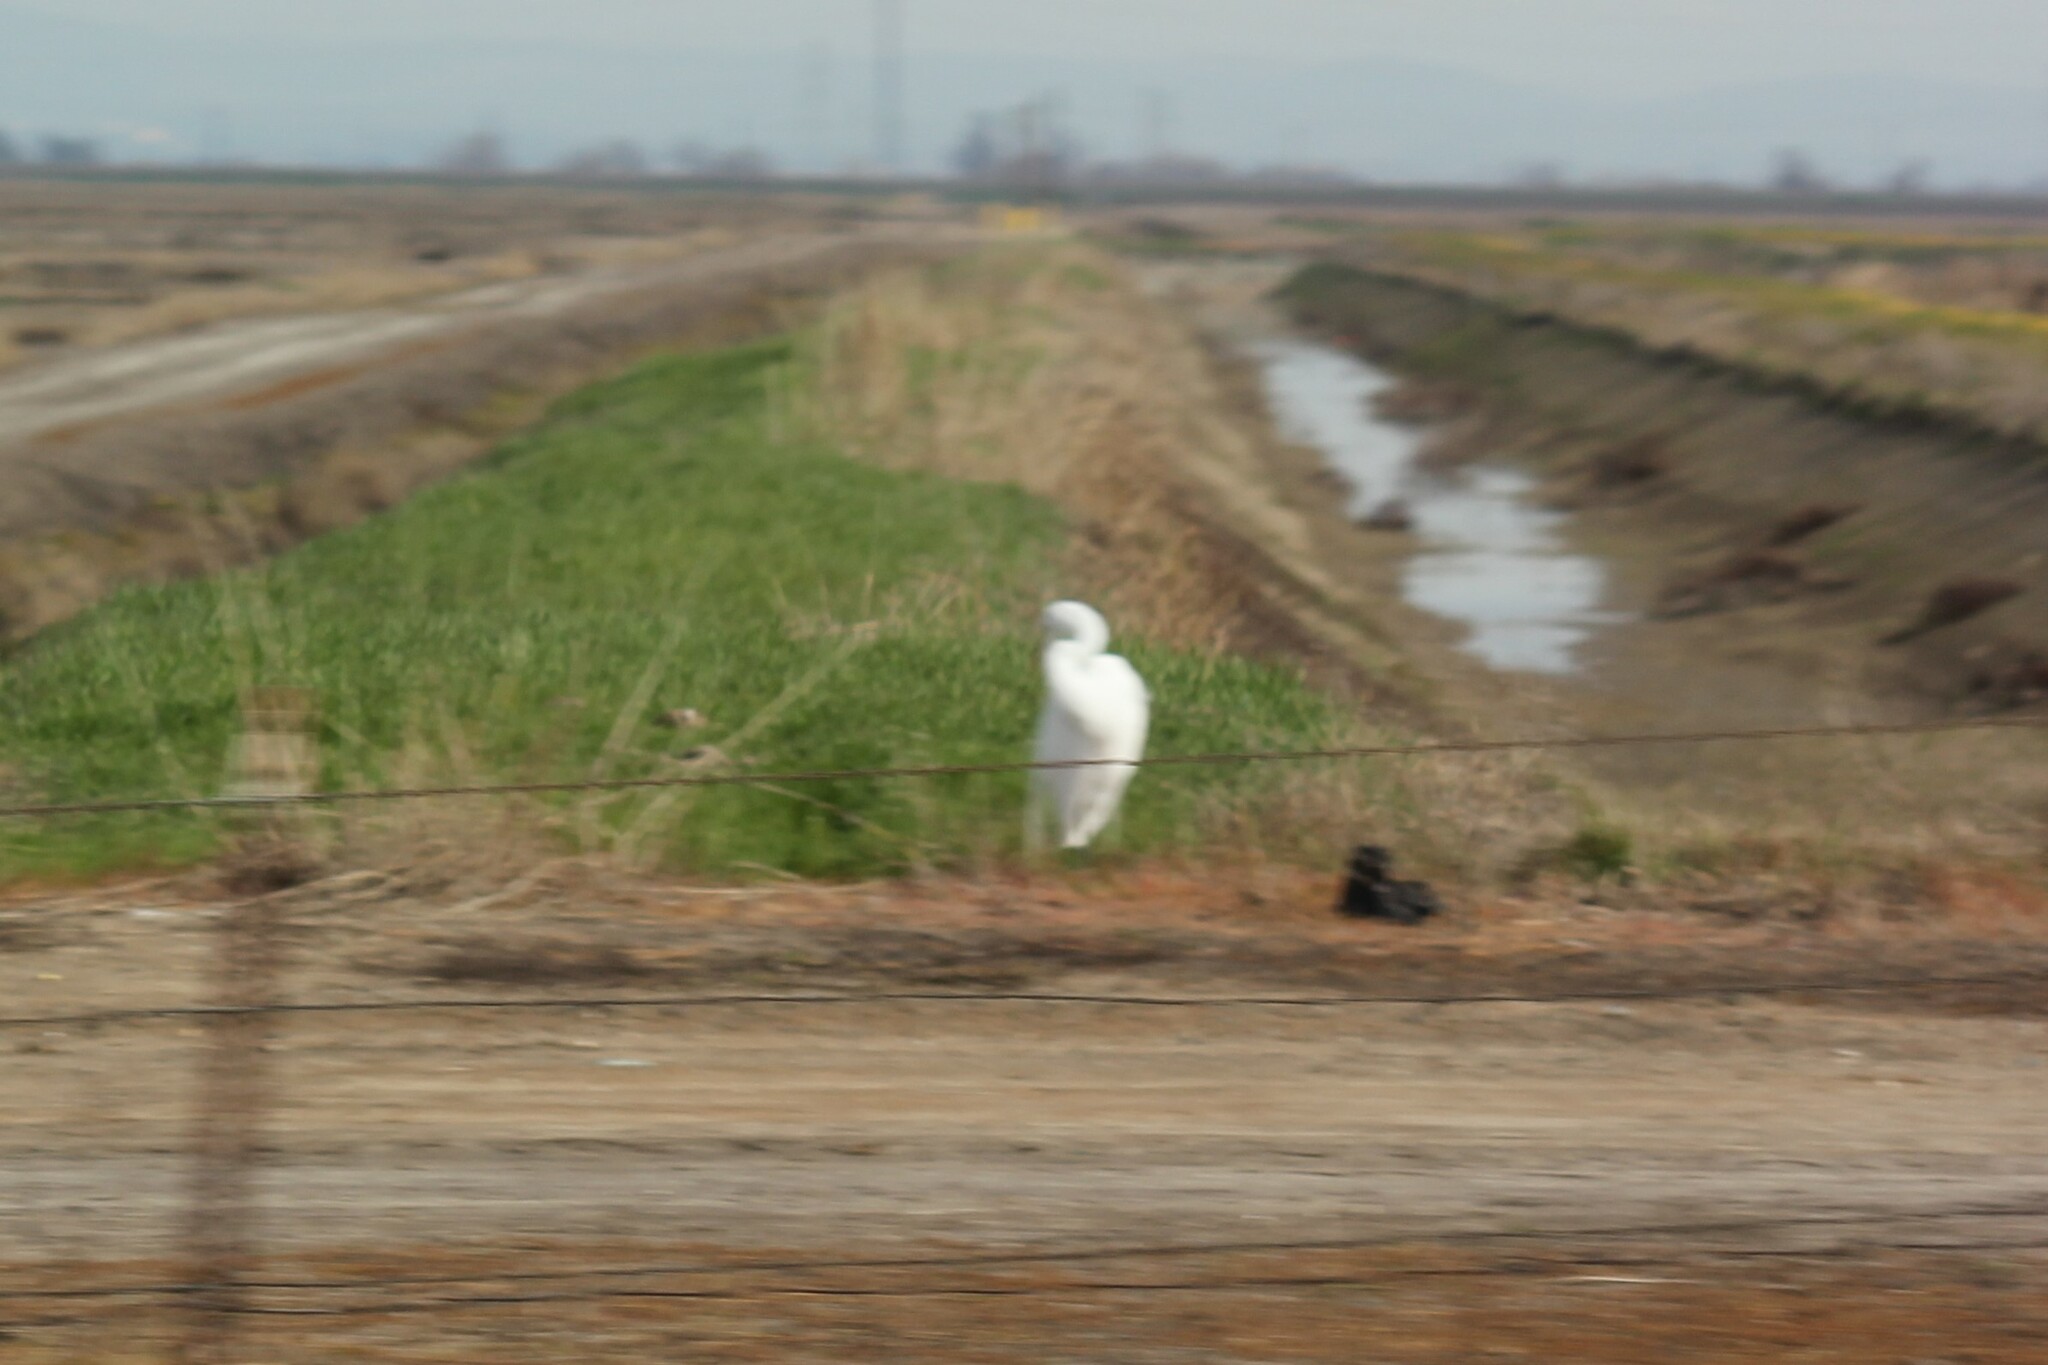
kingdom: Animalia
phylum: Chordata
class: Aves
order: Pelecaniformes
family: Ardeidae
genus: Ardea
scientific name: Ardea alba
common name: Great egret
